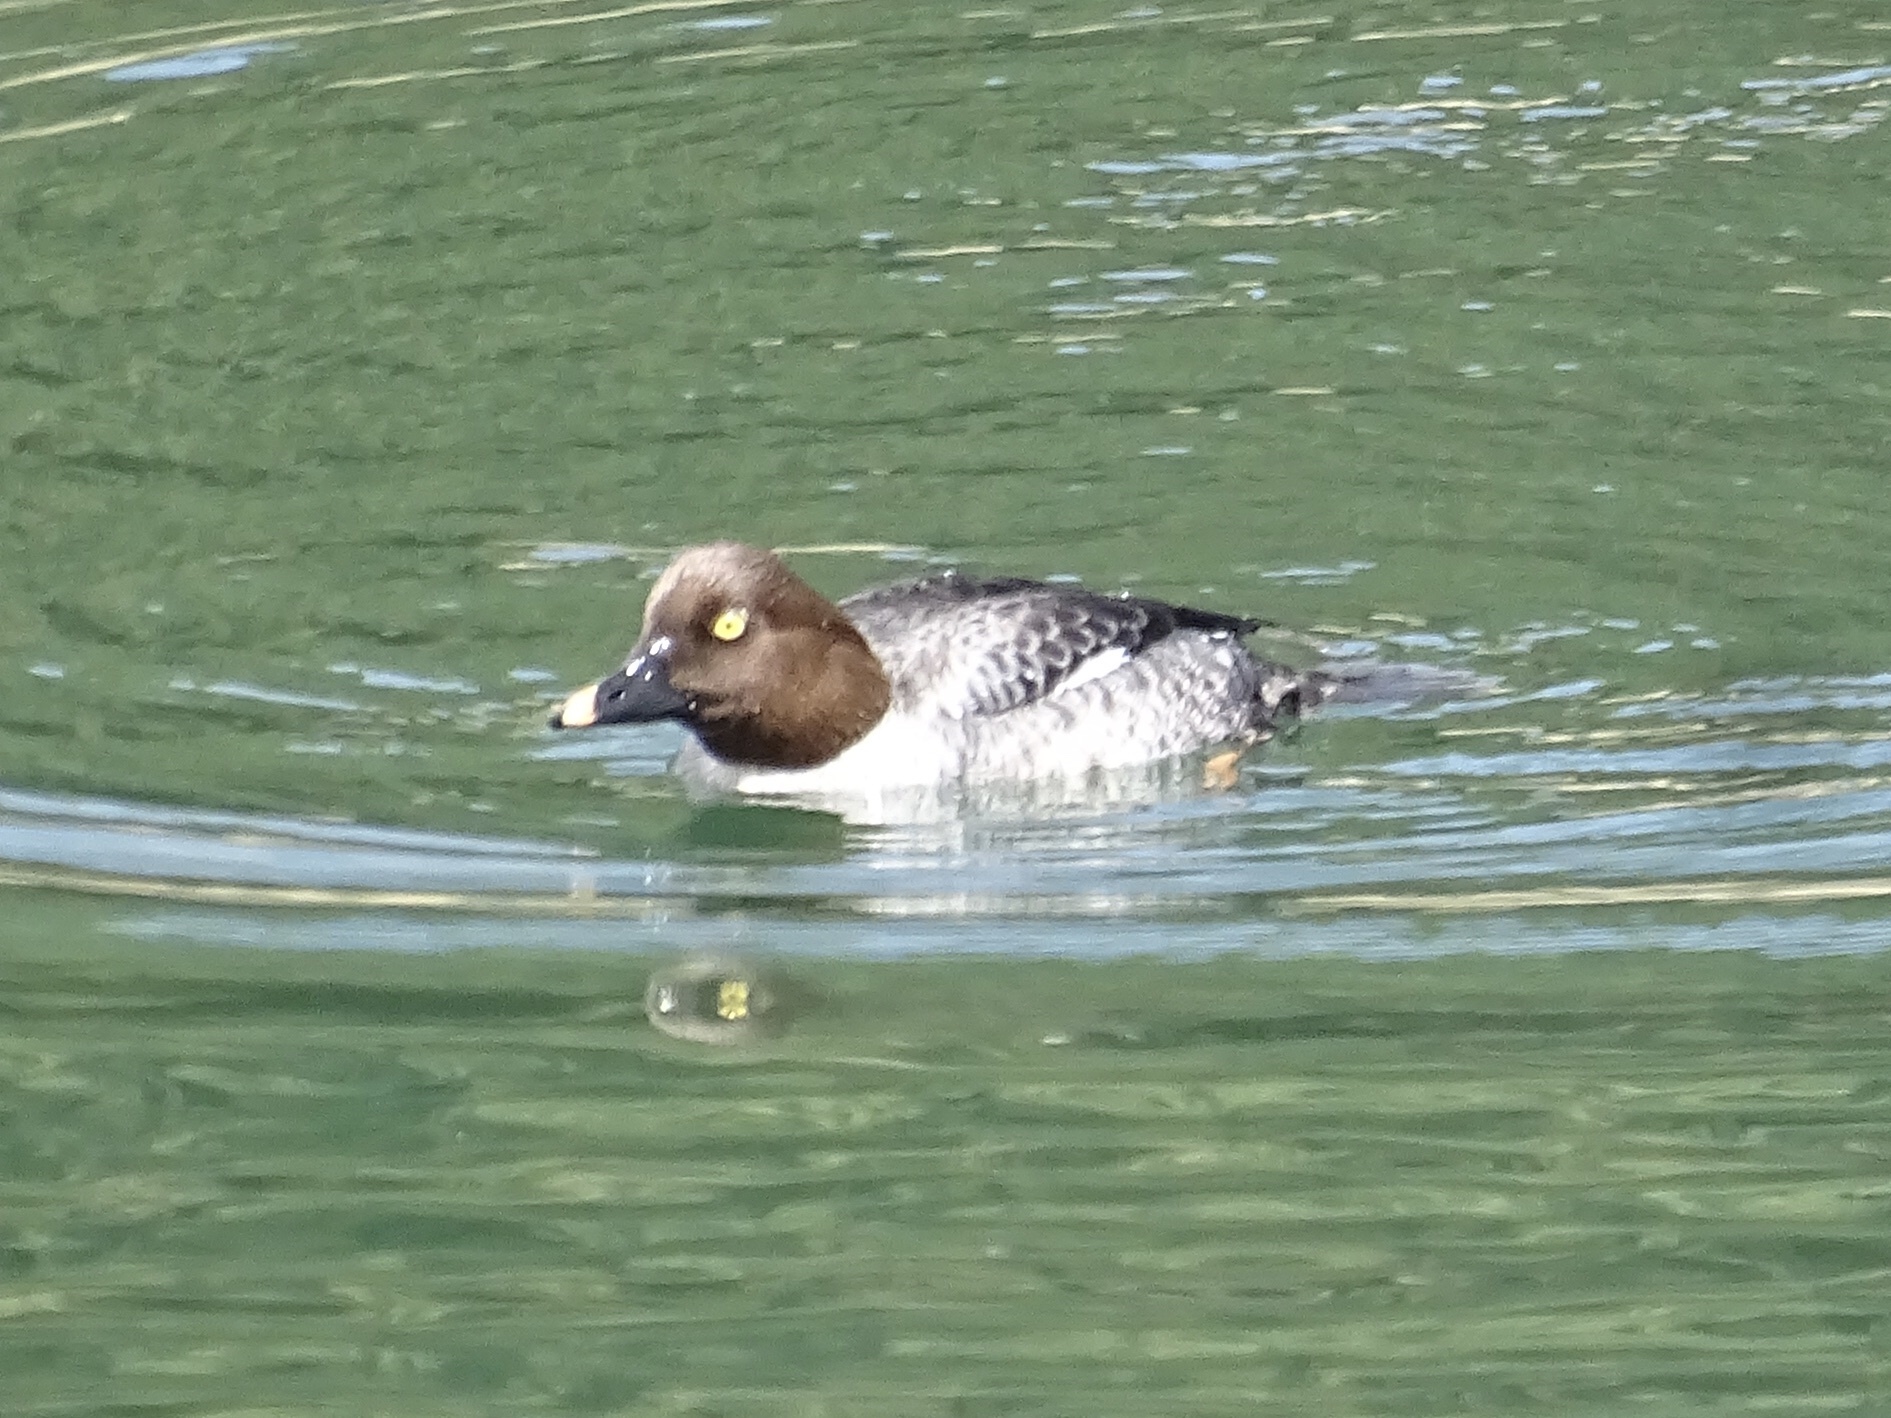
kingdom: Animalia
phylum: Chordata
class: Aves
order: Anseriformes
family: Anatidae
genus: Bucephala
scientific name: Bucephala clangula
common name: Common goldeneye
